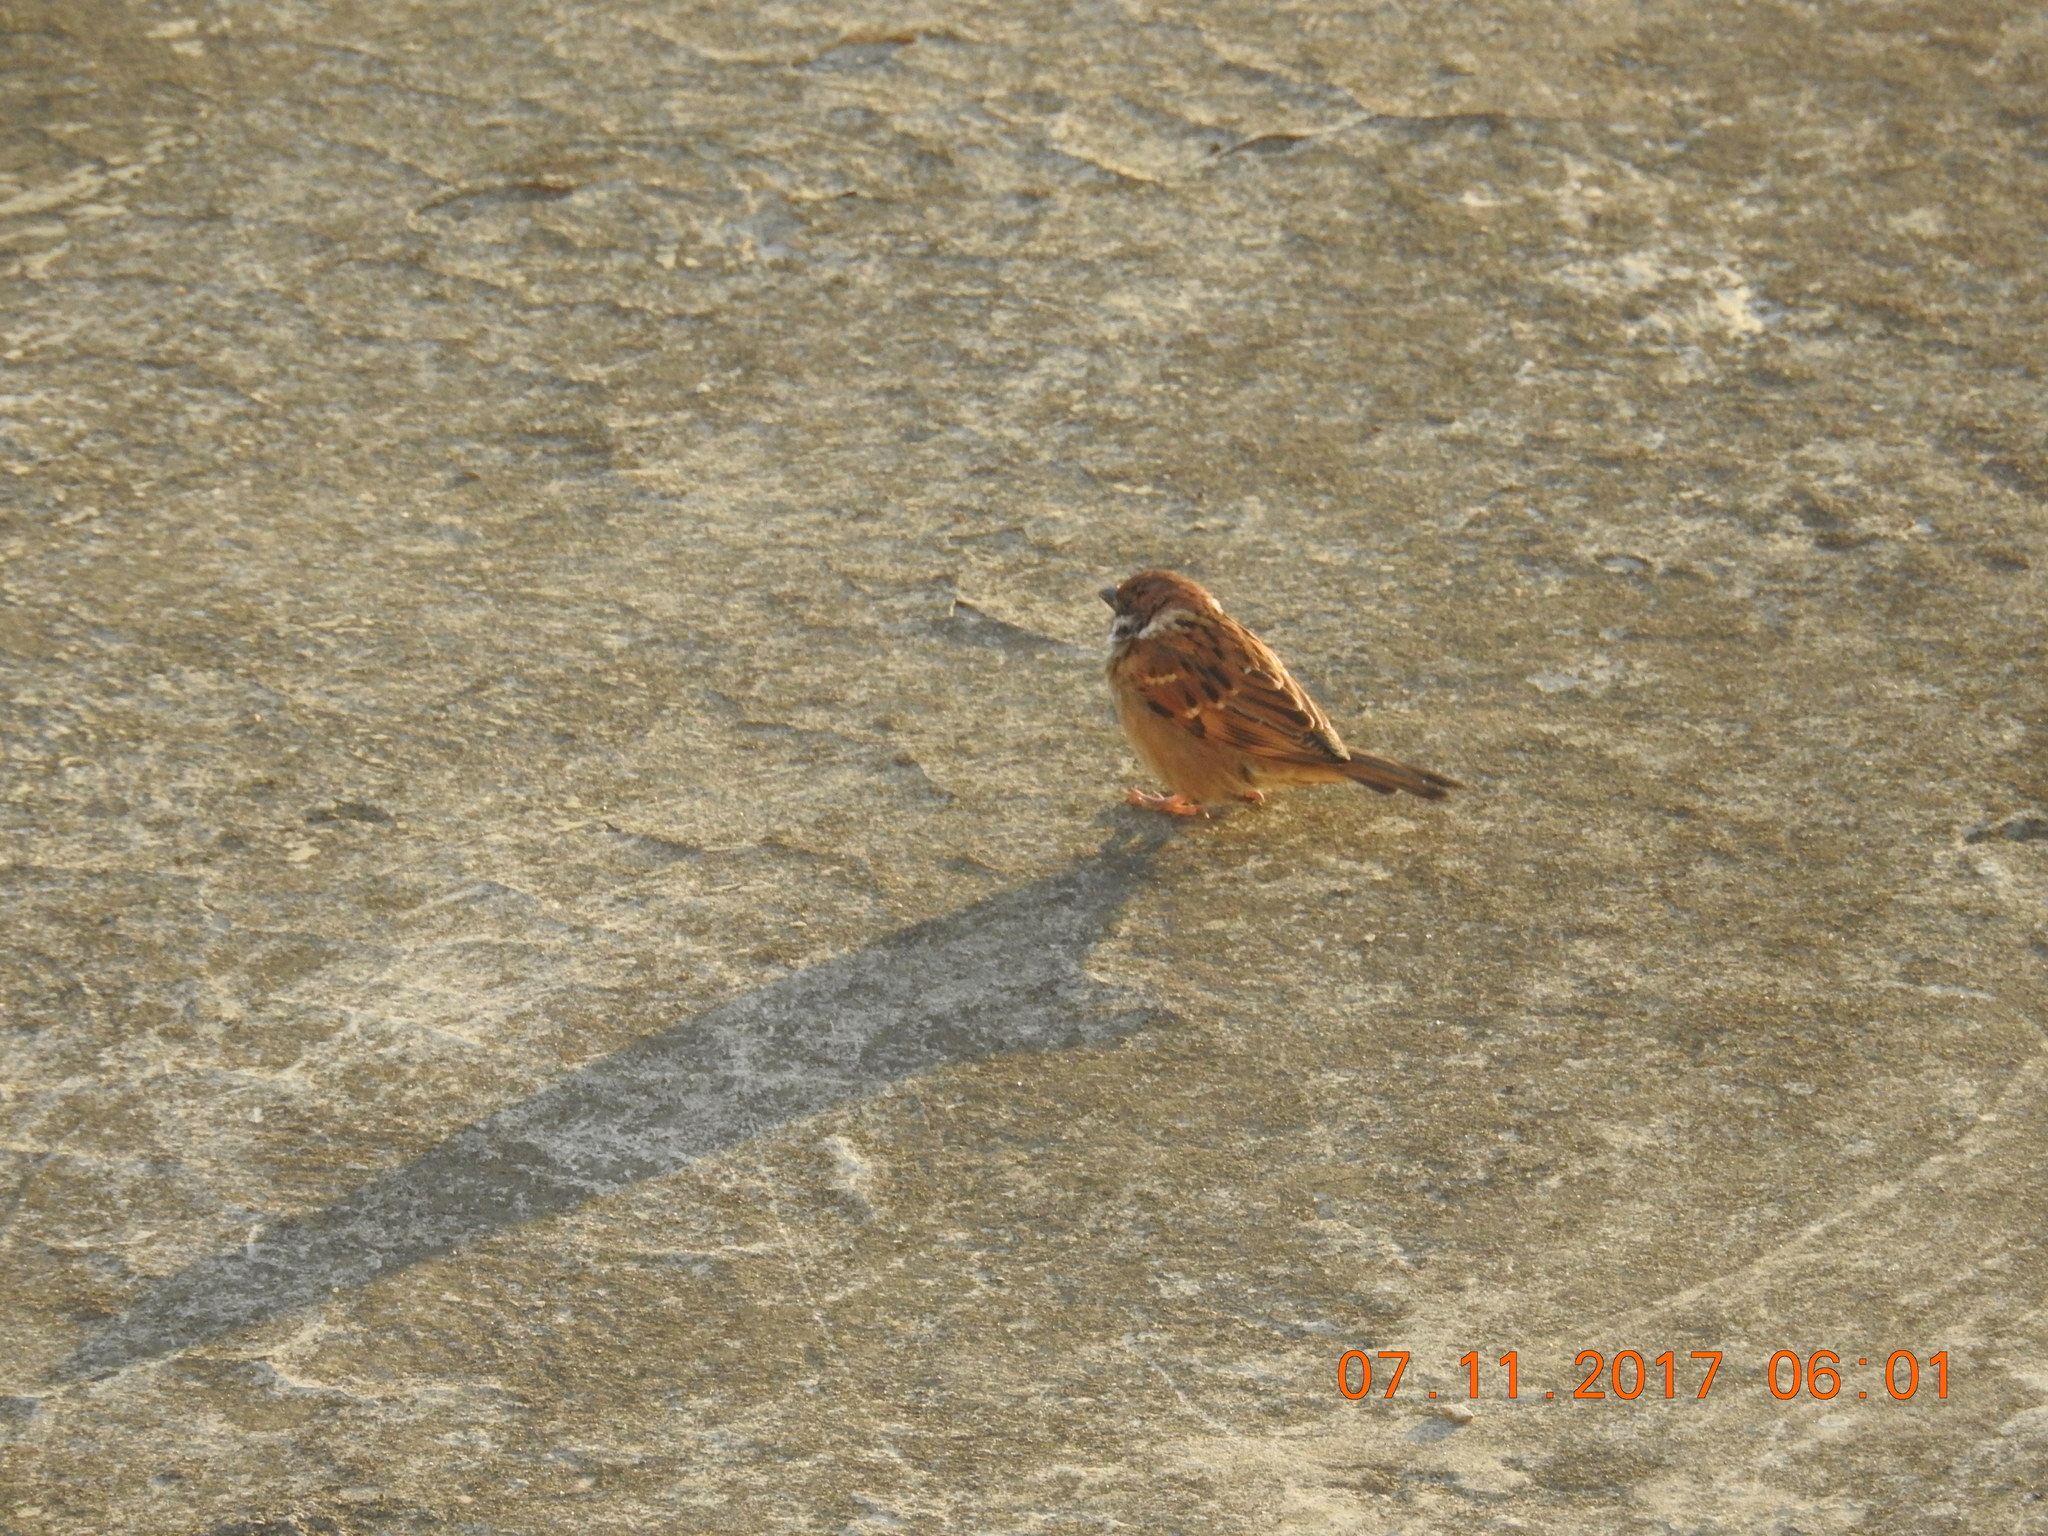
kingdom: Animalia
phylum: Chordata
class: Aves
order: Passeriformes
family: Passeridae
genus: Passer
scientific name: Passer montanus
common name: Eurasian tree sparrow
